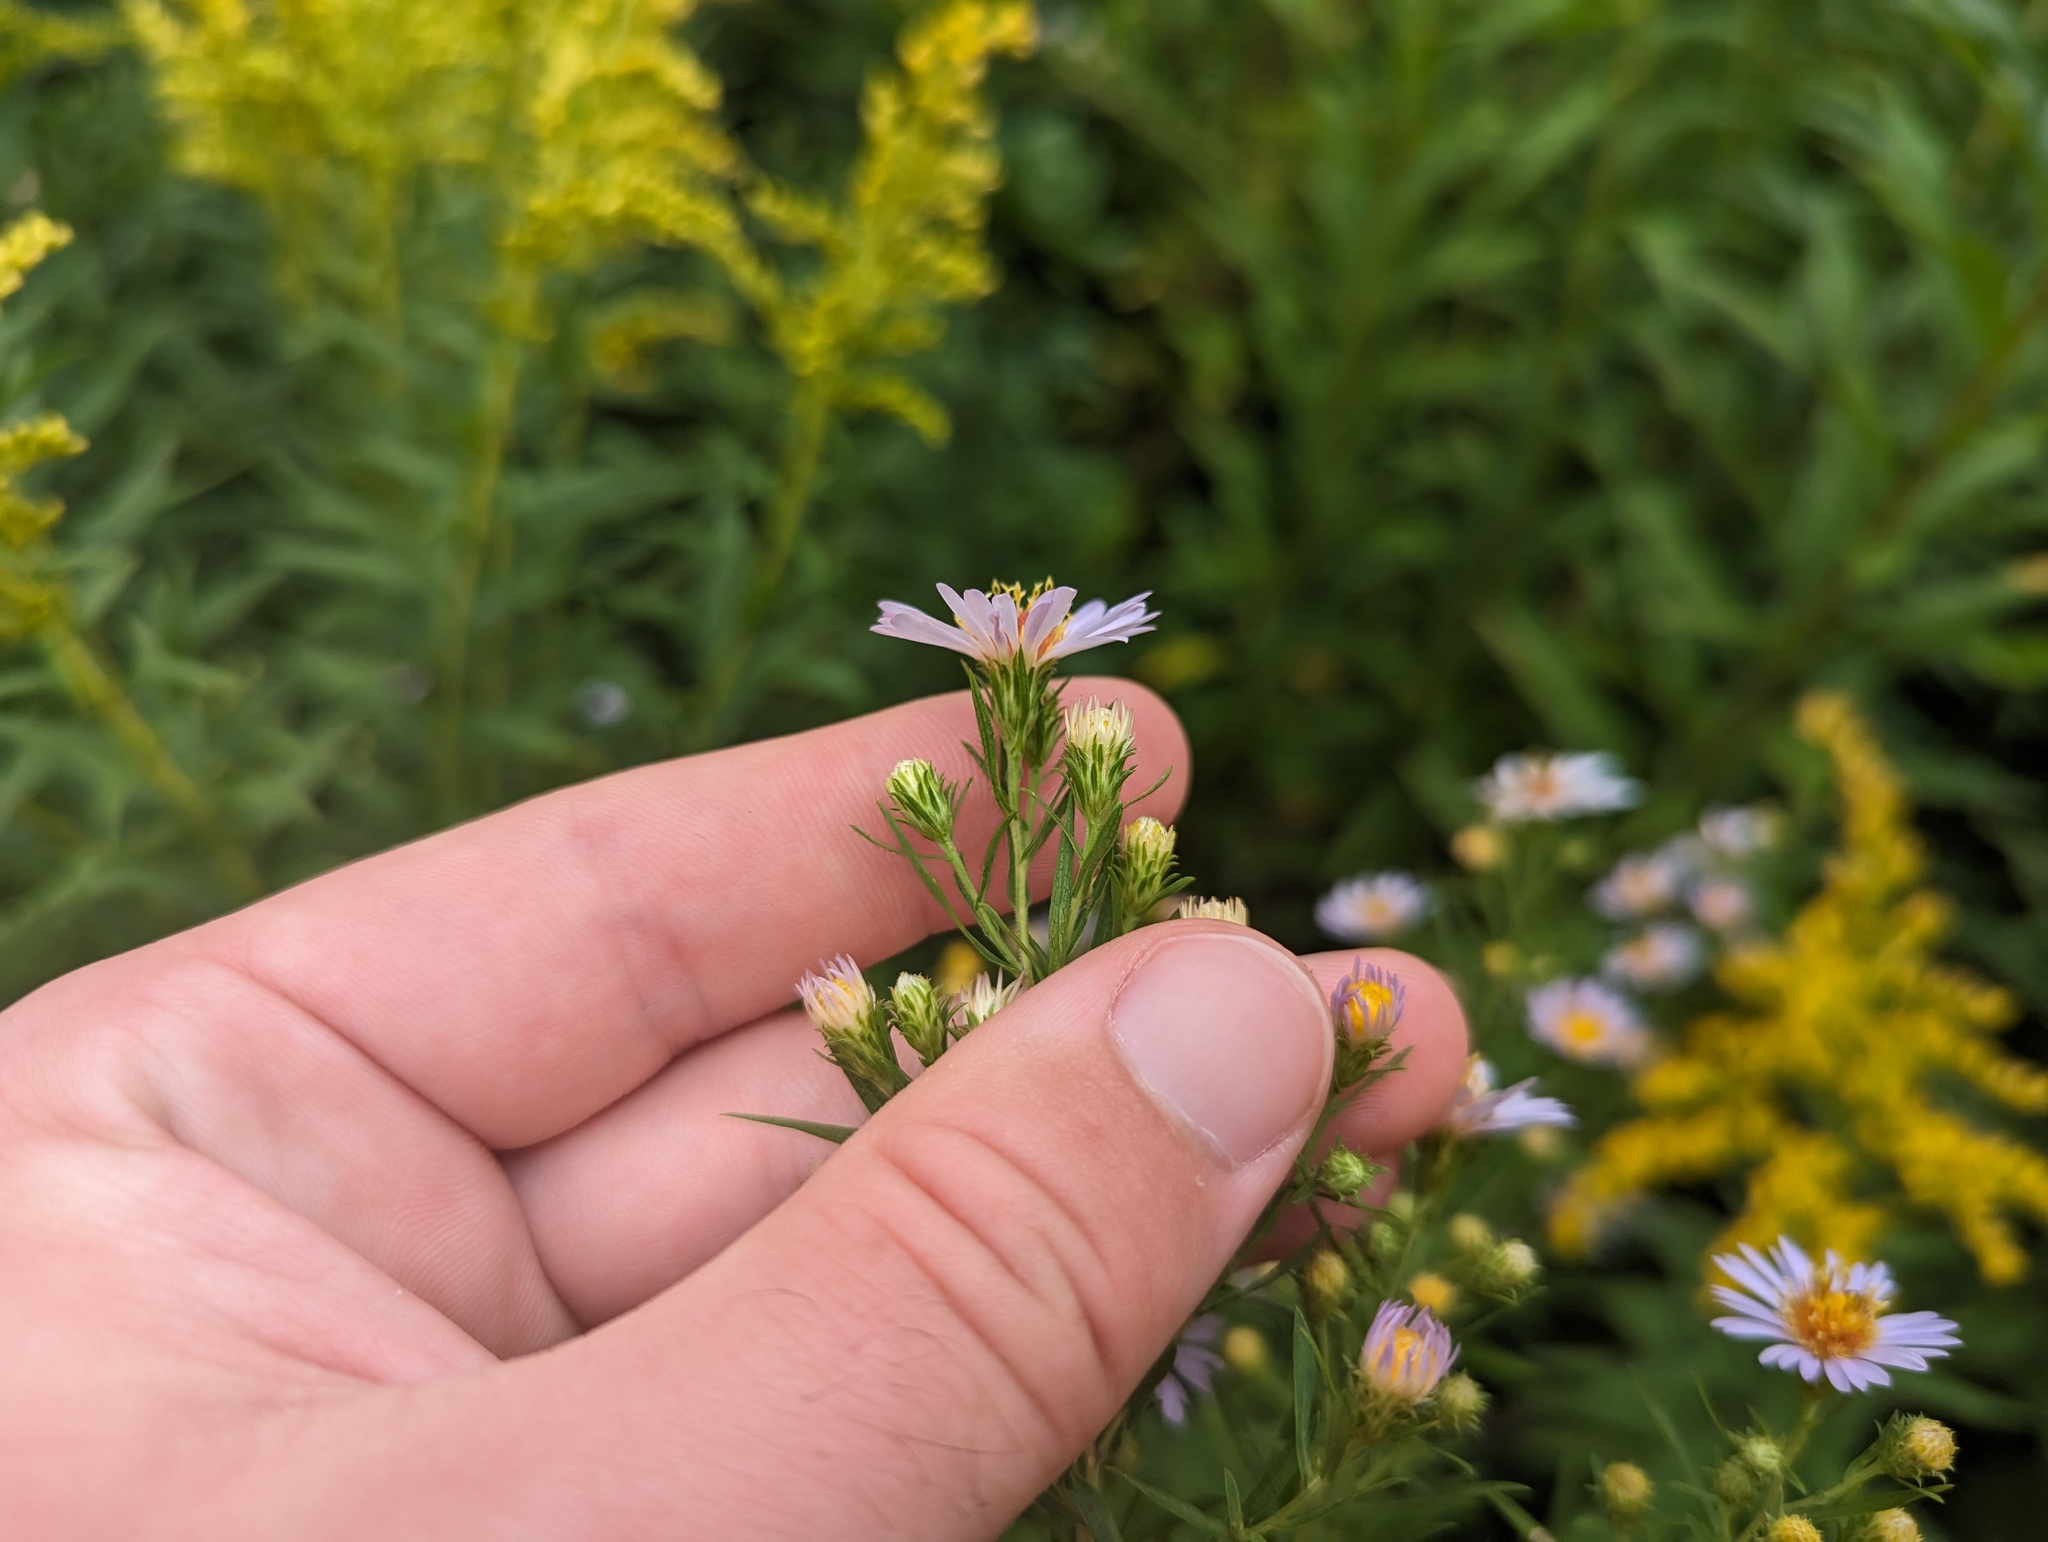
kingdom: Plantae
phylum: Tracheophyta
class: Magnoliopsida
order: Asterales
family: Asteraceae
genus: Symphyotrichum
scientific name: Symphyotrichum praealtum
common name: Willow aster
